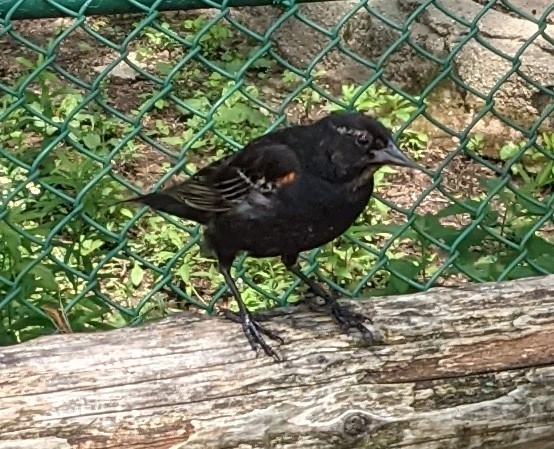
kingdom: Animalia
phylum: Chordata
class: Aves
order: Passeriformes
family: Icteridae
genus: Agelaius
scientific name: Agelaius phoeniceus
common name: Red-winged blackbird
